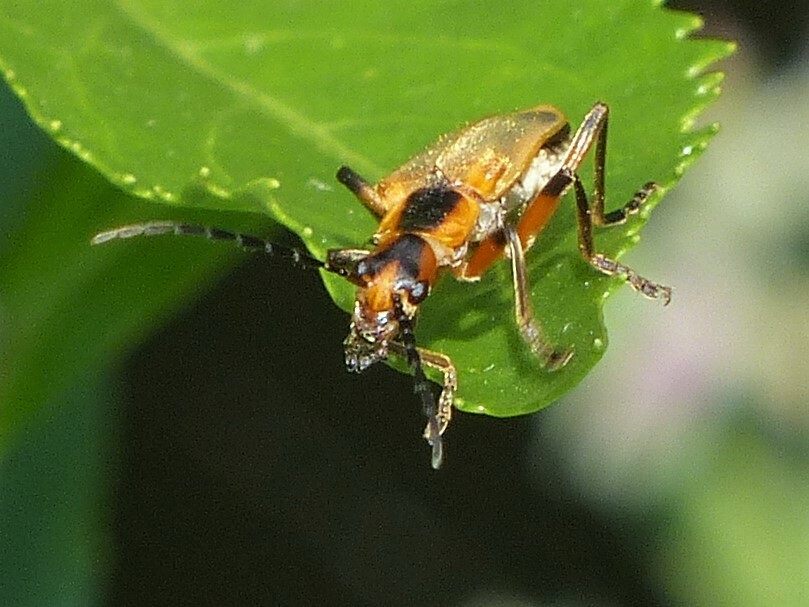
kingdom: Animalia
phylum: Arthropoda
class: Insecta
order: Coleoptera
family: Cantharidae
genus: Chauliognathus
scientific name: Chauliognathus marginatus
